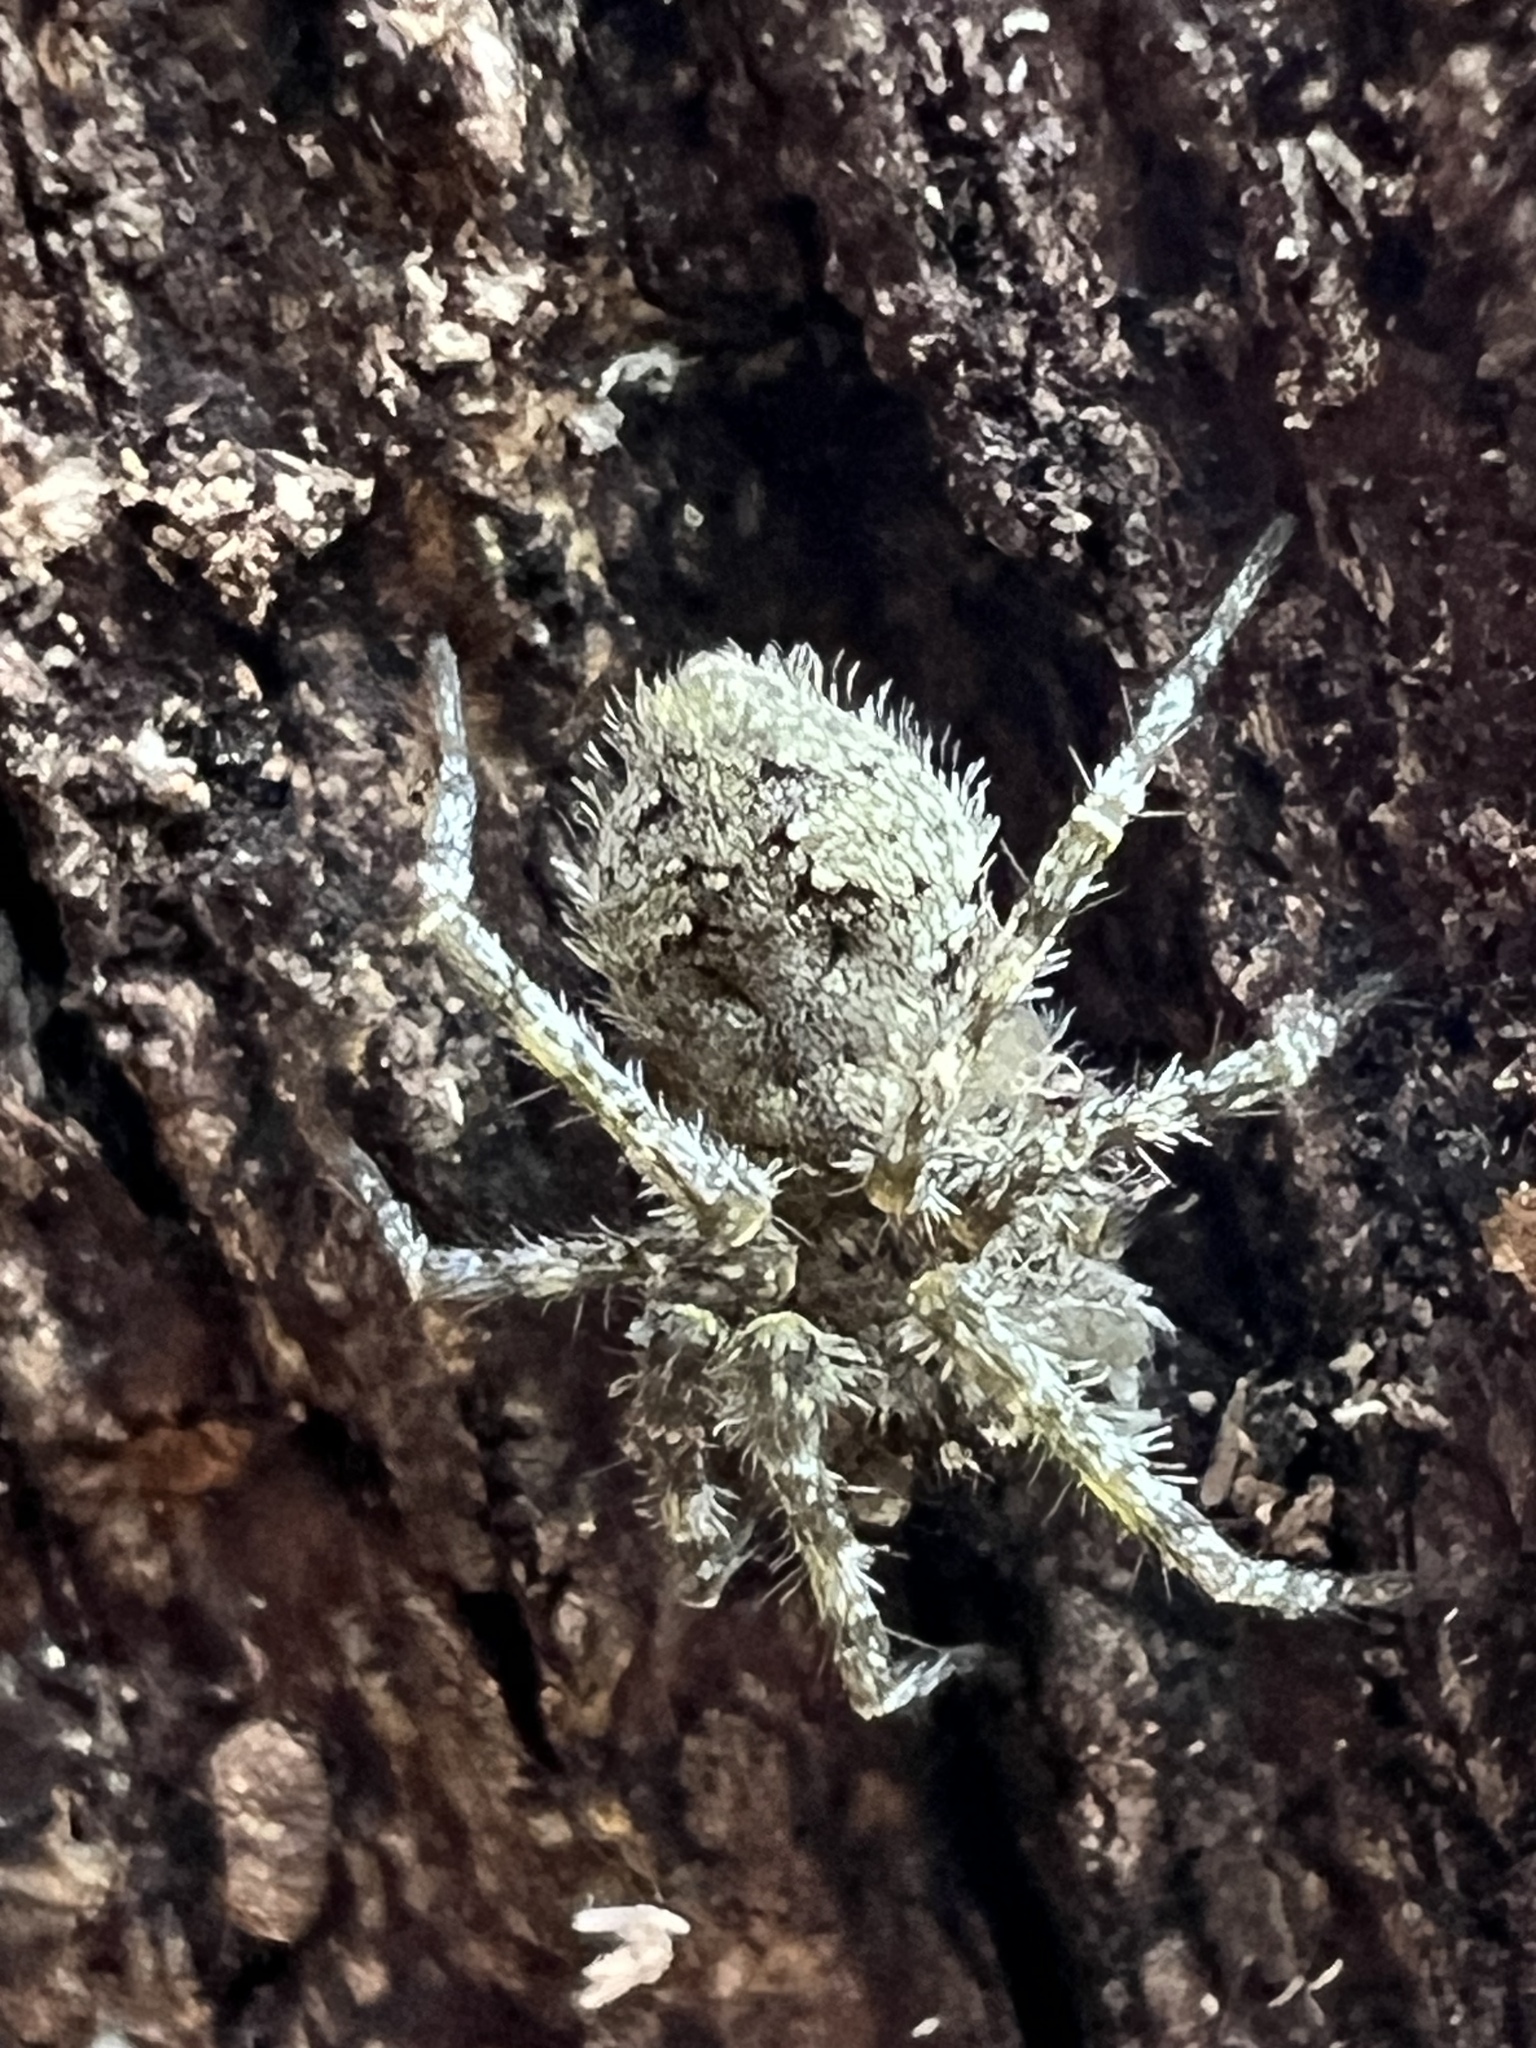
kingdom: Animalia
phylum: Arthropoda
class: Arachnida
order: Araneae
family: Pisauridae
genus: Dolomedes
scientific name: Dolomedes albineus
